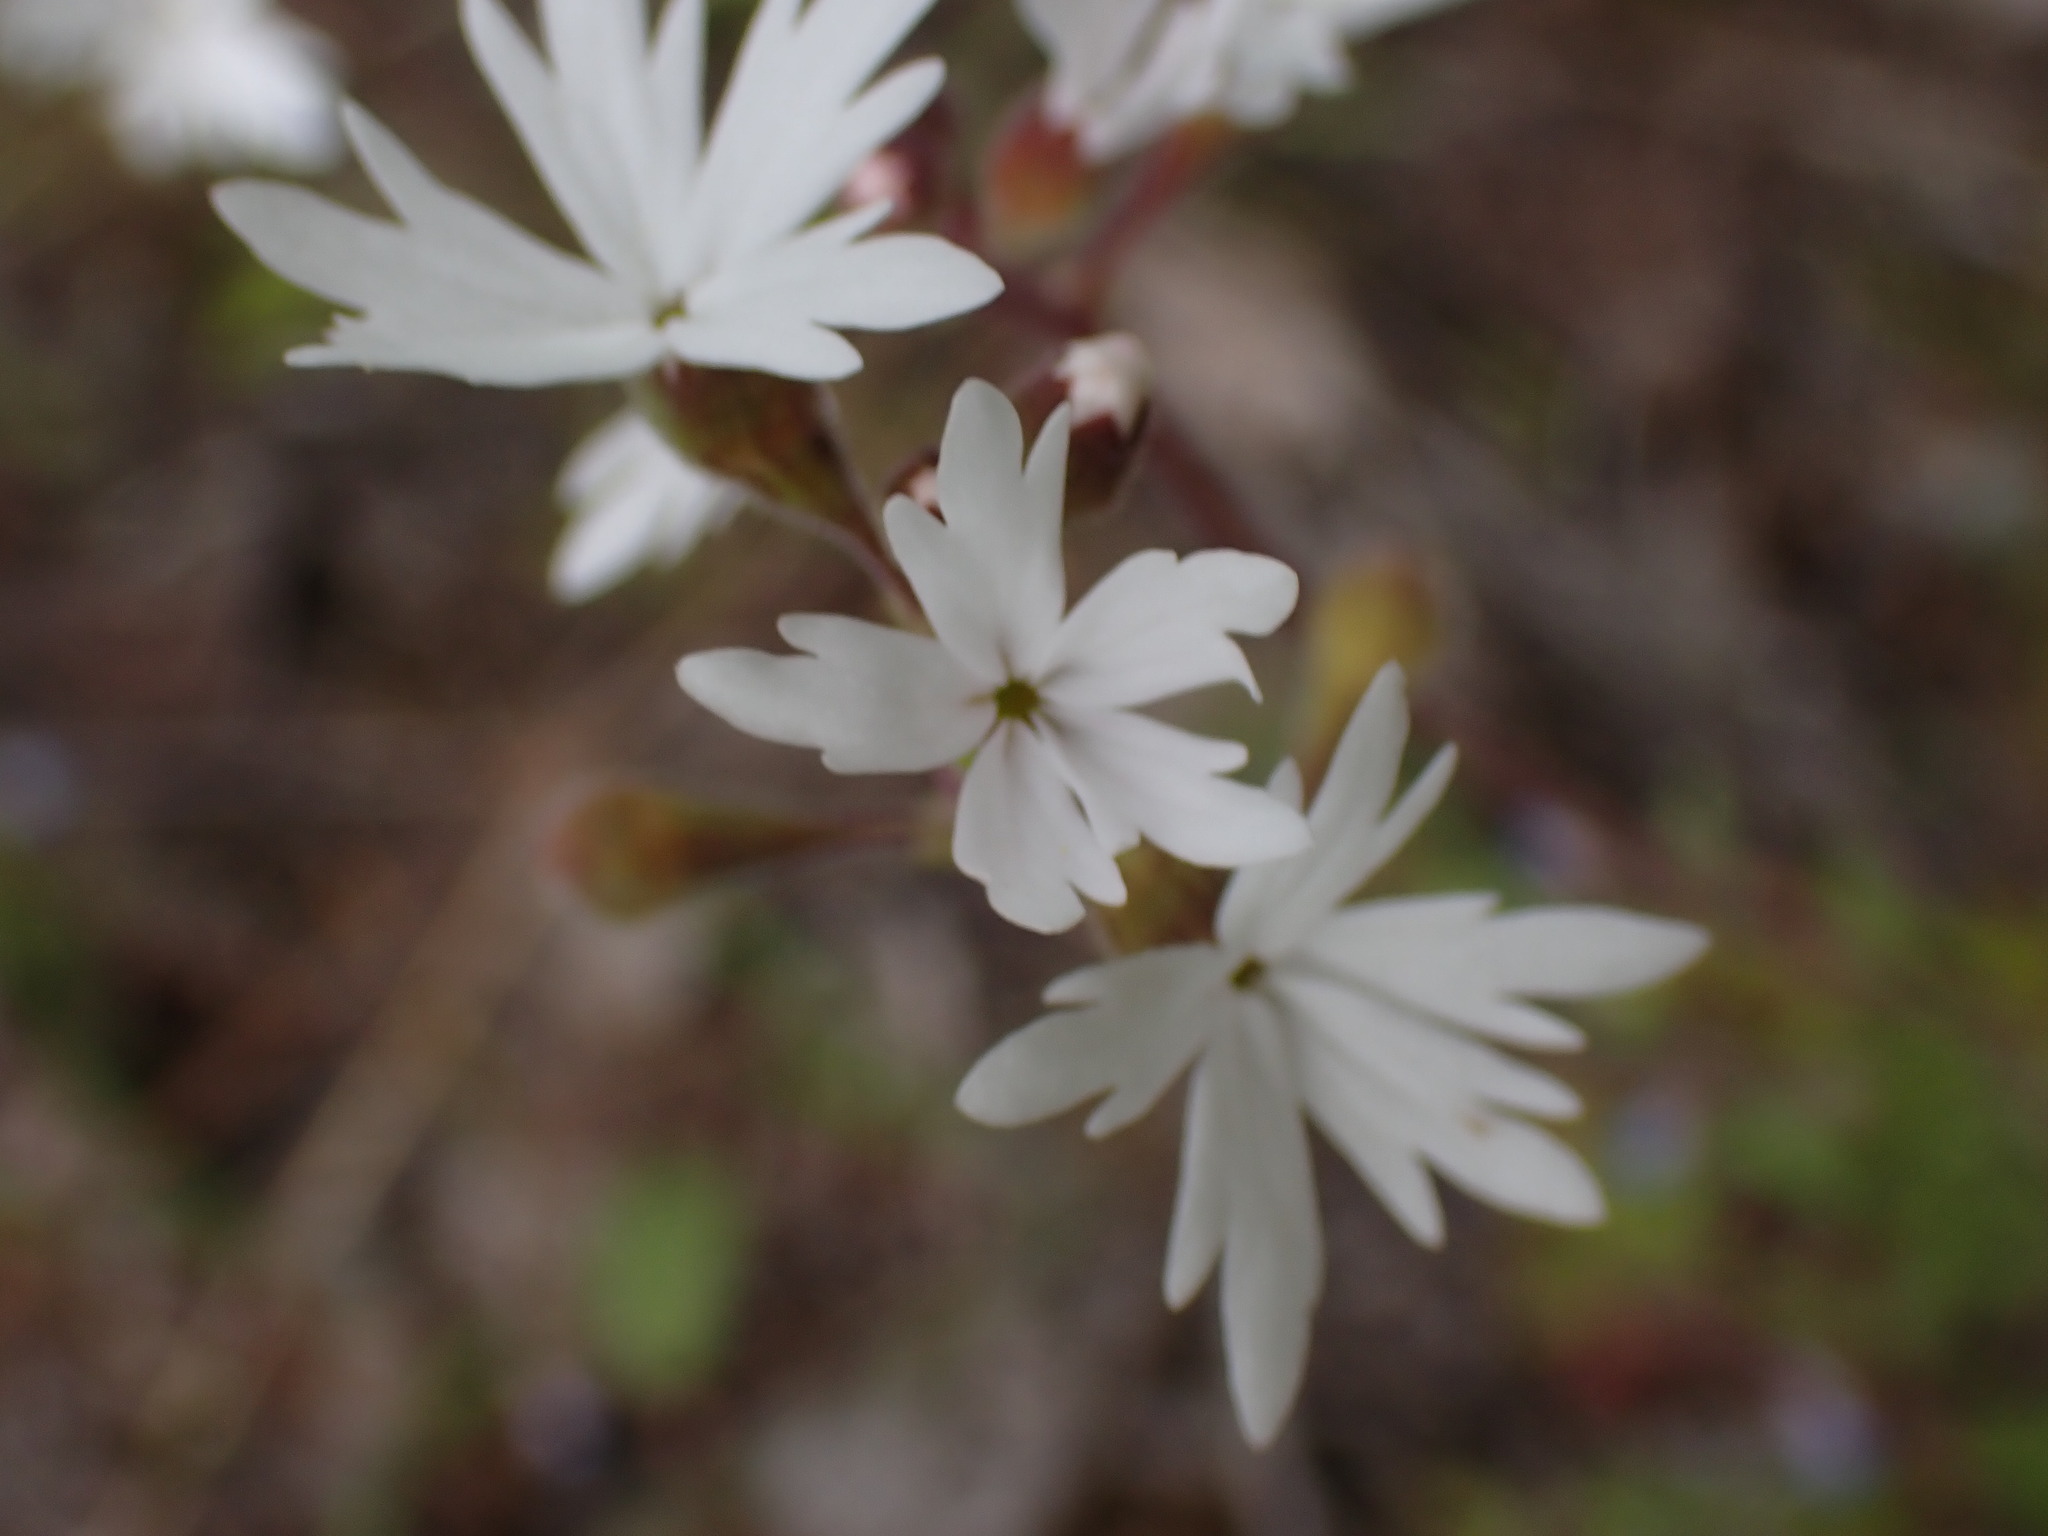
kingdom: Plantae
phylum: Tracheophyta
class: Magnoliopsida
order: Saxifragales
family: Saxifragaceae
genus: Lithophragma
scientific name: Lithophragma parviflorum
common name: Small-flowered fringe-cup
